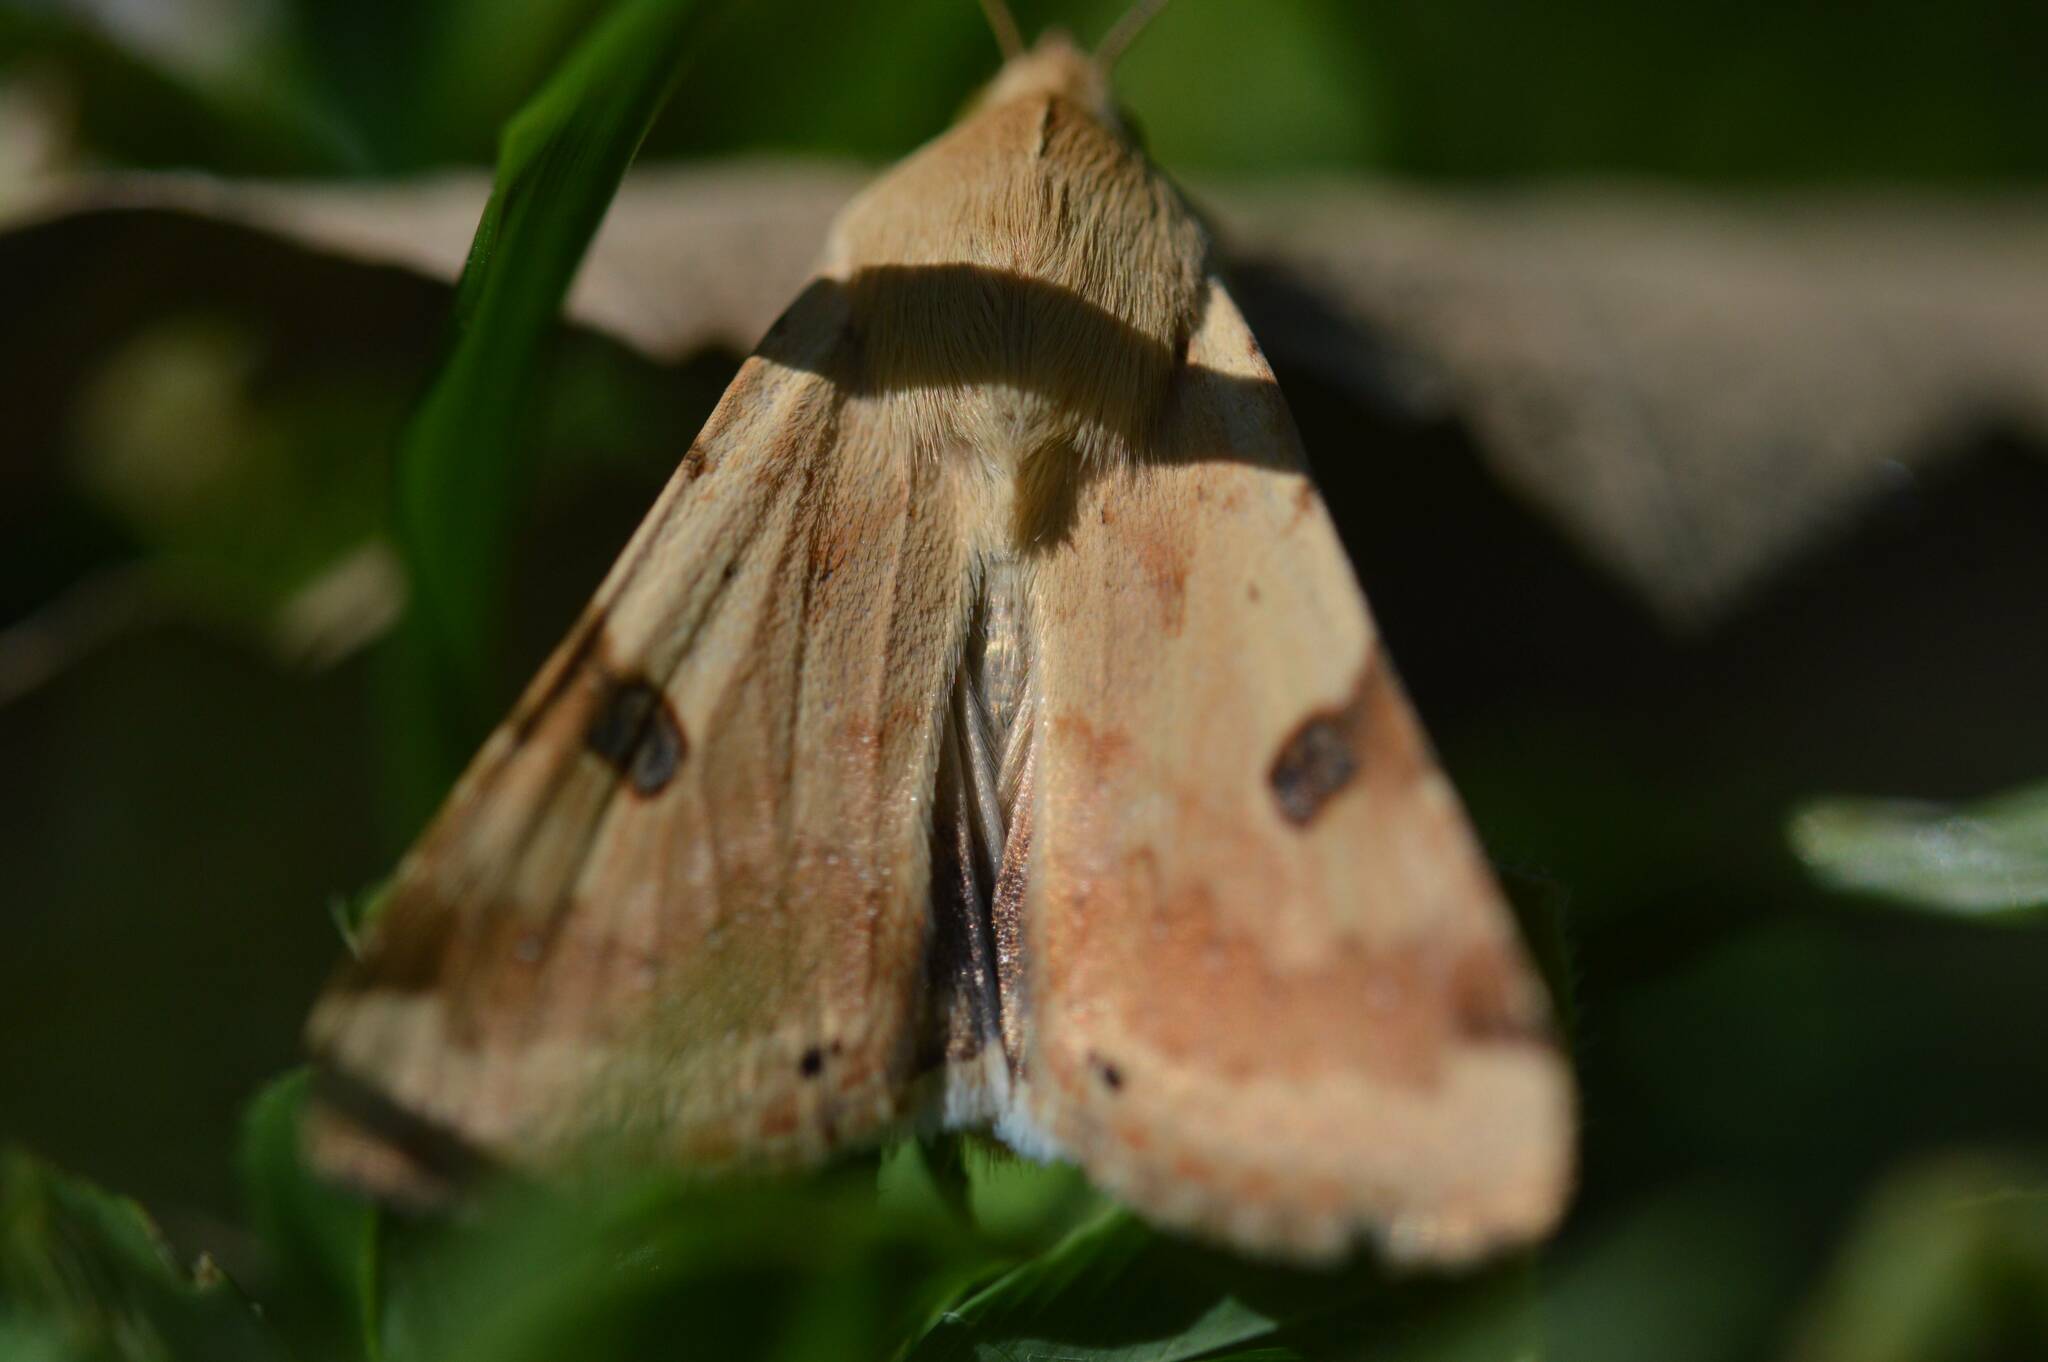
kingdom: Animalia
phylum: Arthropoda
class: Insecta
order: Lepidoptera
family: Noctuidae
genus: Heliothis
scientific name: Heliothis peltigera
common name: Bordered straw
